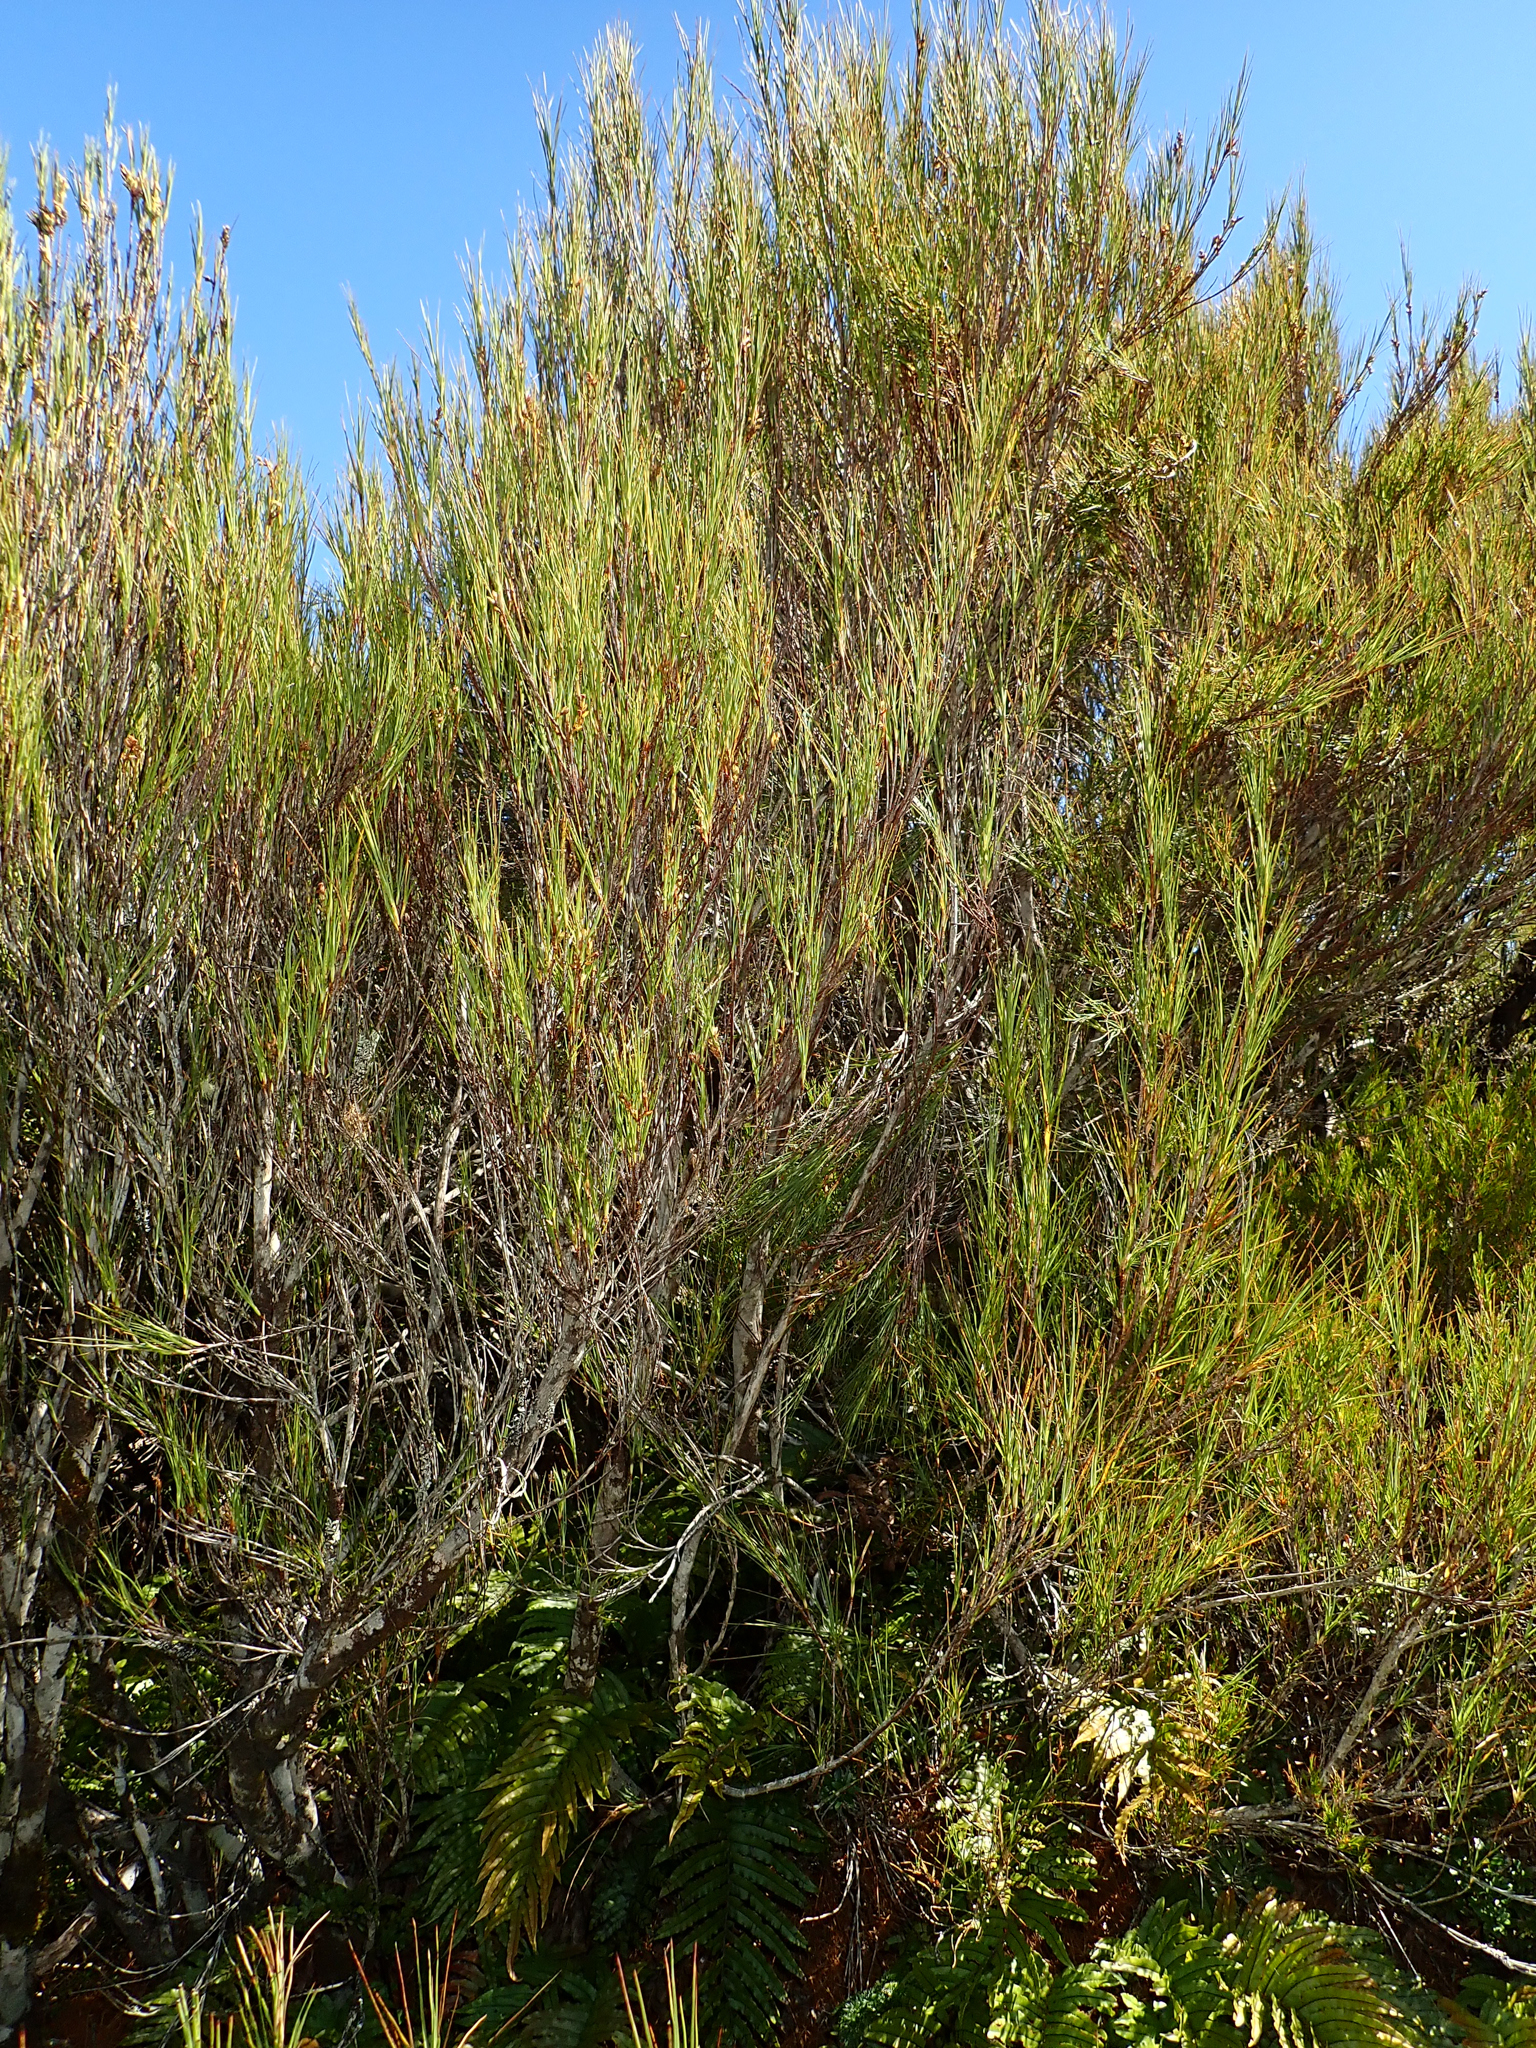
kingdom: Plantae
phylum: Tracheophyta
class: Magnoliopsida
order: Ericales
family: Ericaceae
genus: Dracophyllum
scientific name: Dracophyllum longifolium
